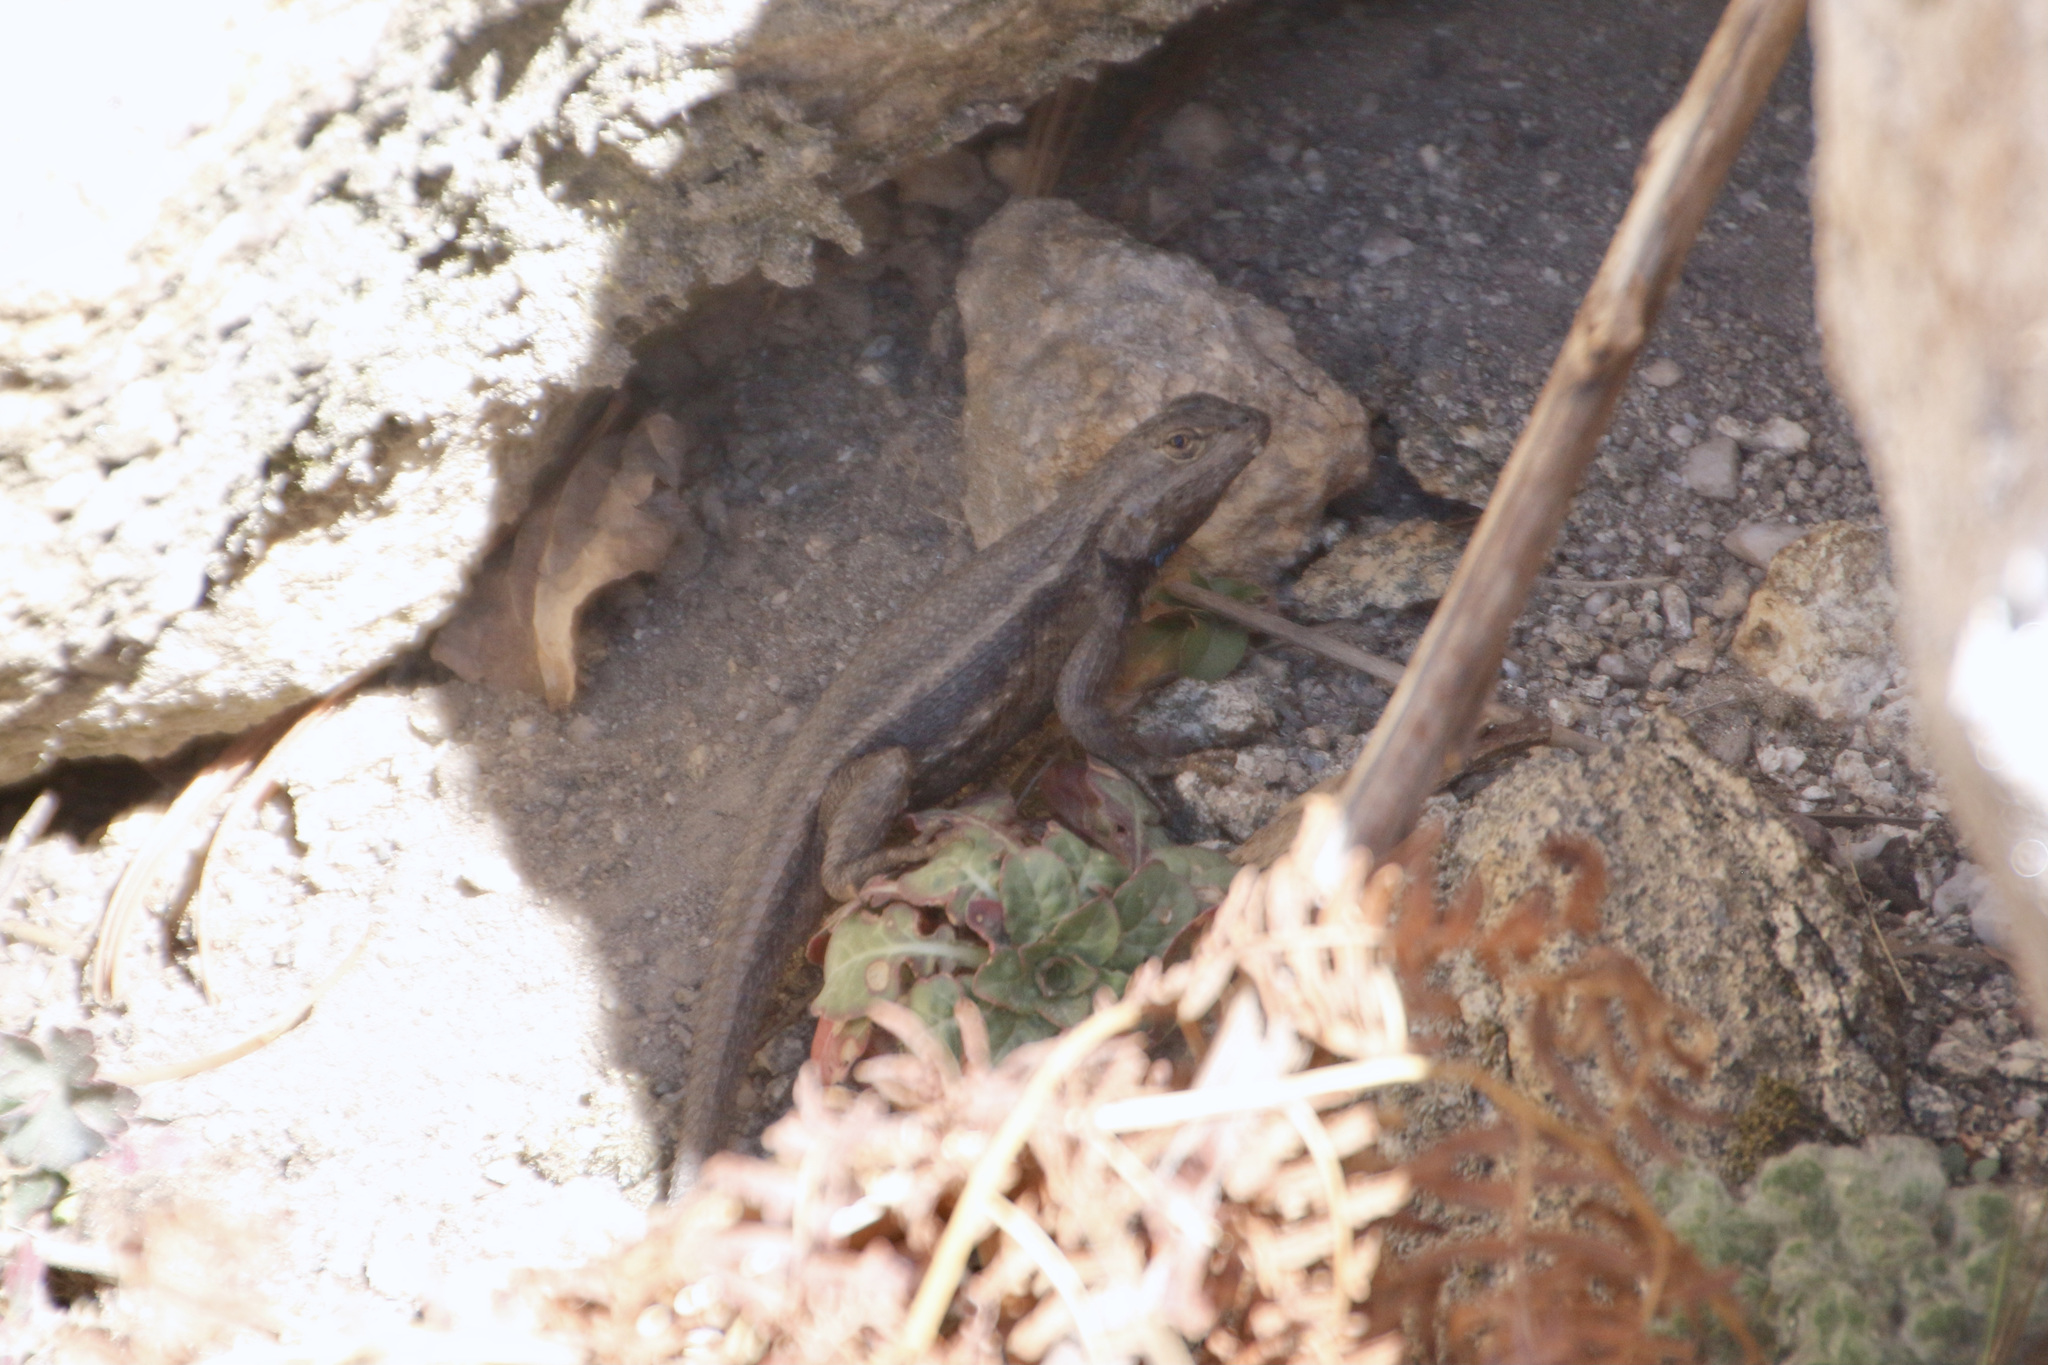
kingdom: Animalia
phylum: Chordata
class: Squamata
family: Phrynosomatidae
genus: Sceloporus
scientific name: Sceloporus cowlesi
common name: White sands prairie lizard
